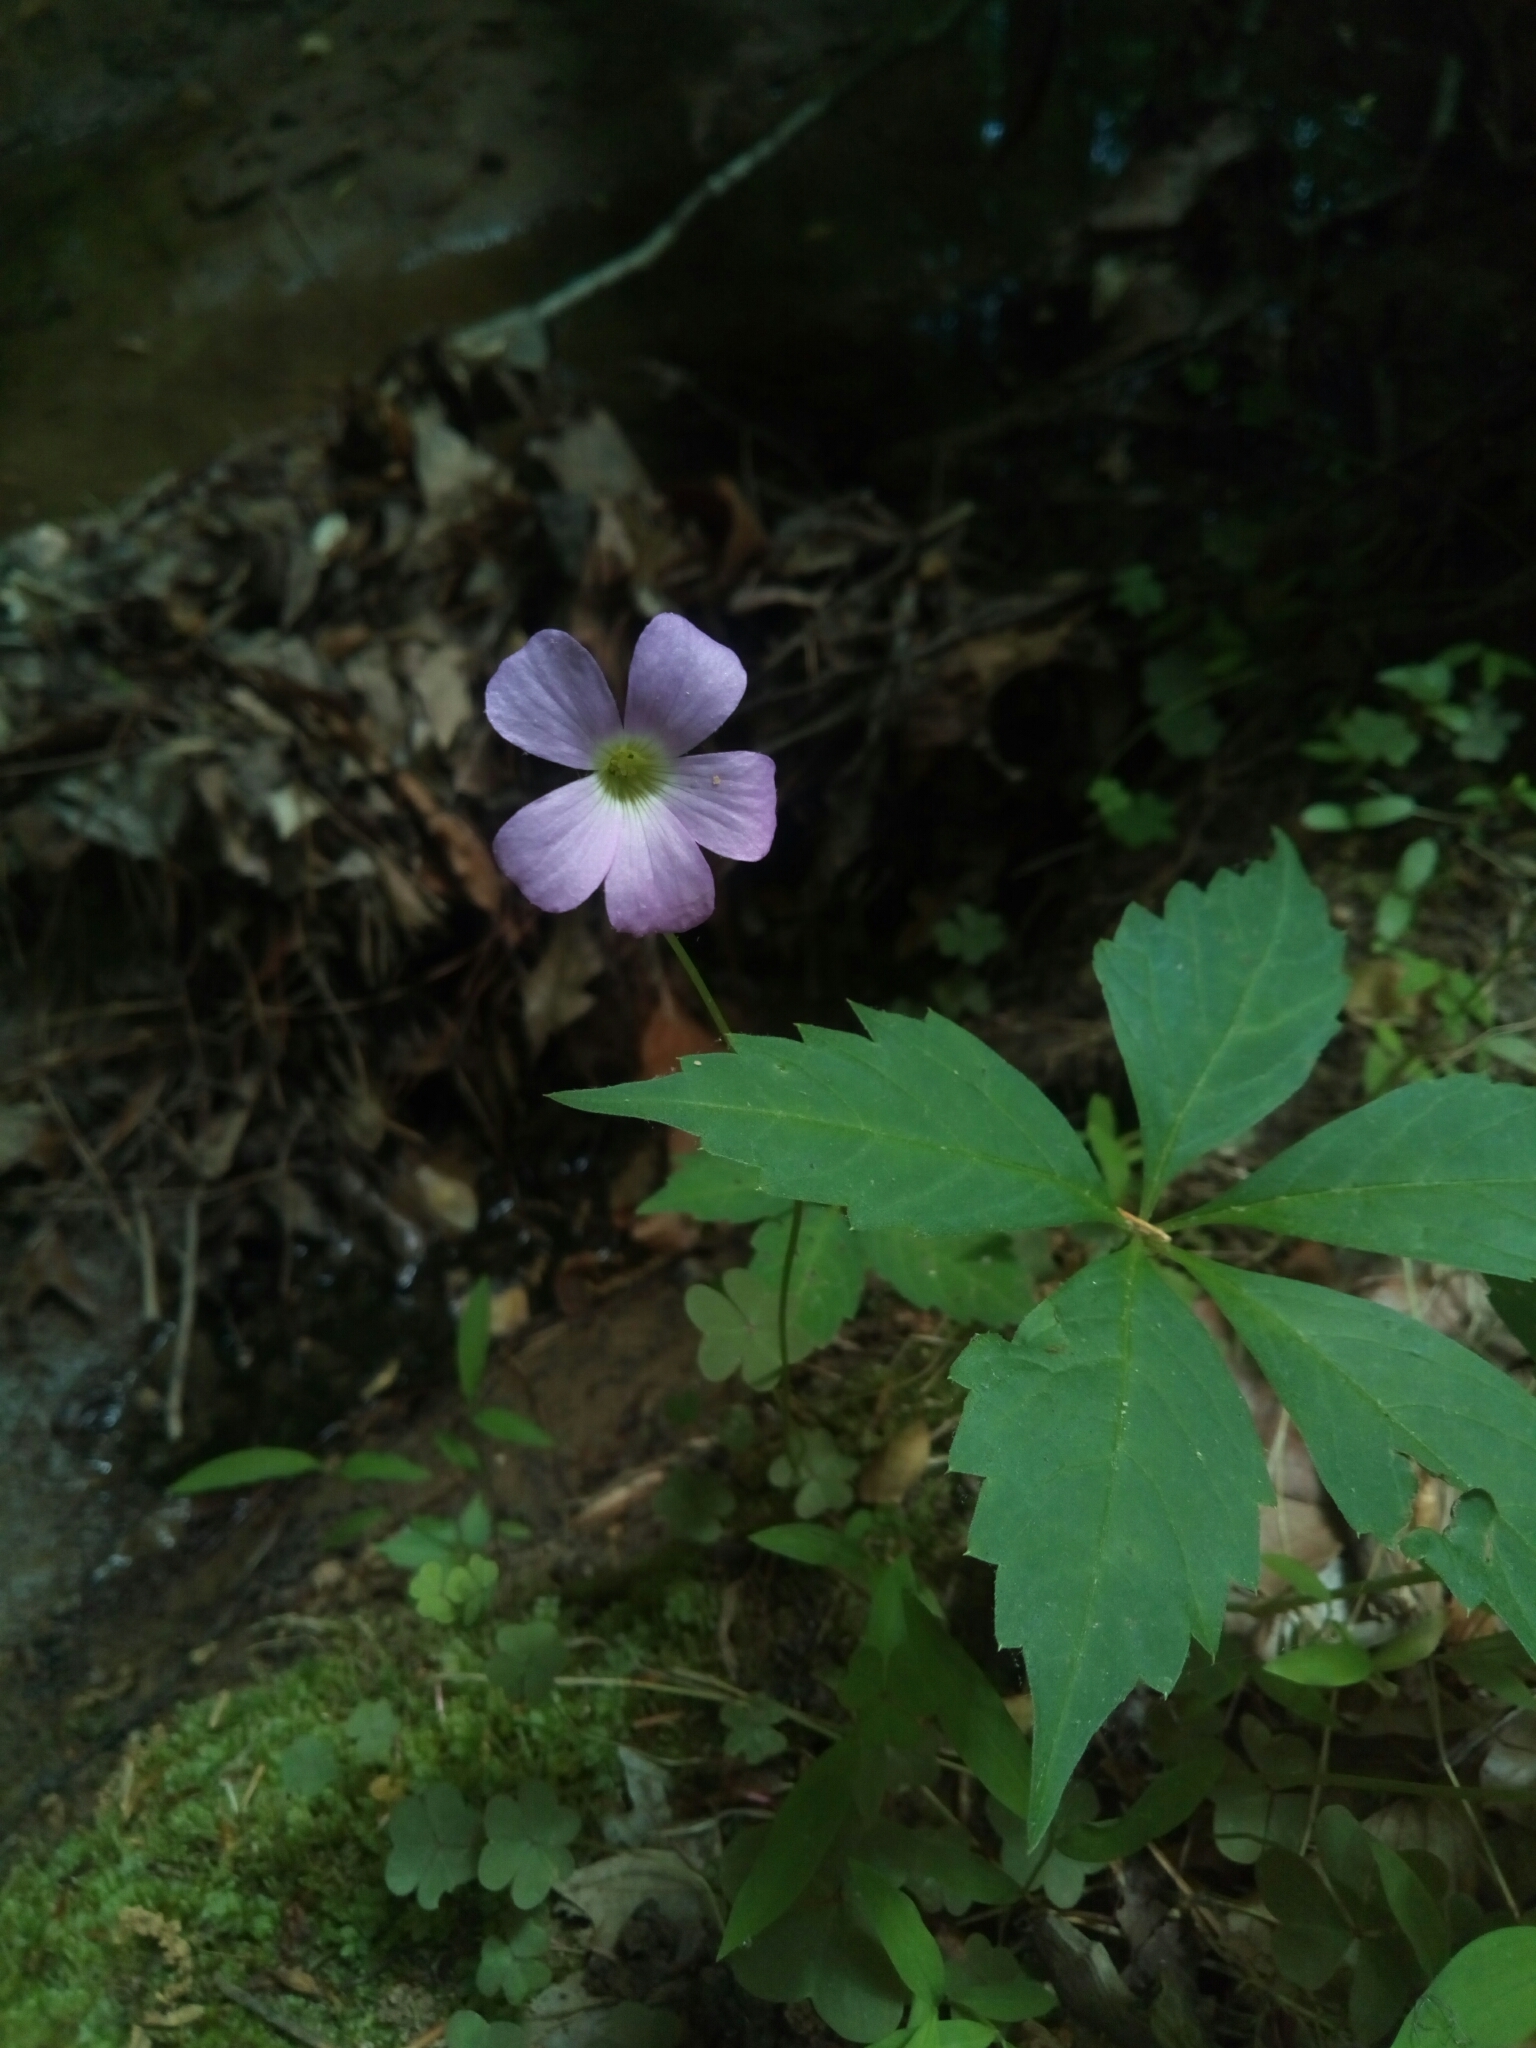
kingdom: Plantae
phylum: Tracheophyta
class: Magnoliopsida
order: Oxalidales
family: Oxalidaceae
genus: Oxalis
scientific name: Oxalis violacea
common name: Violet wood-sorrel
